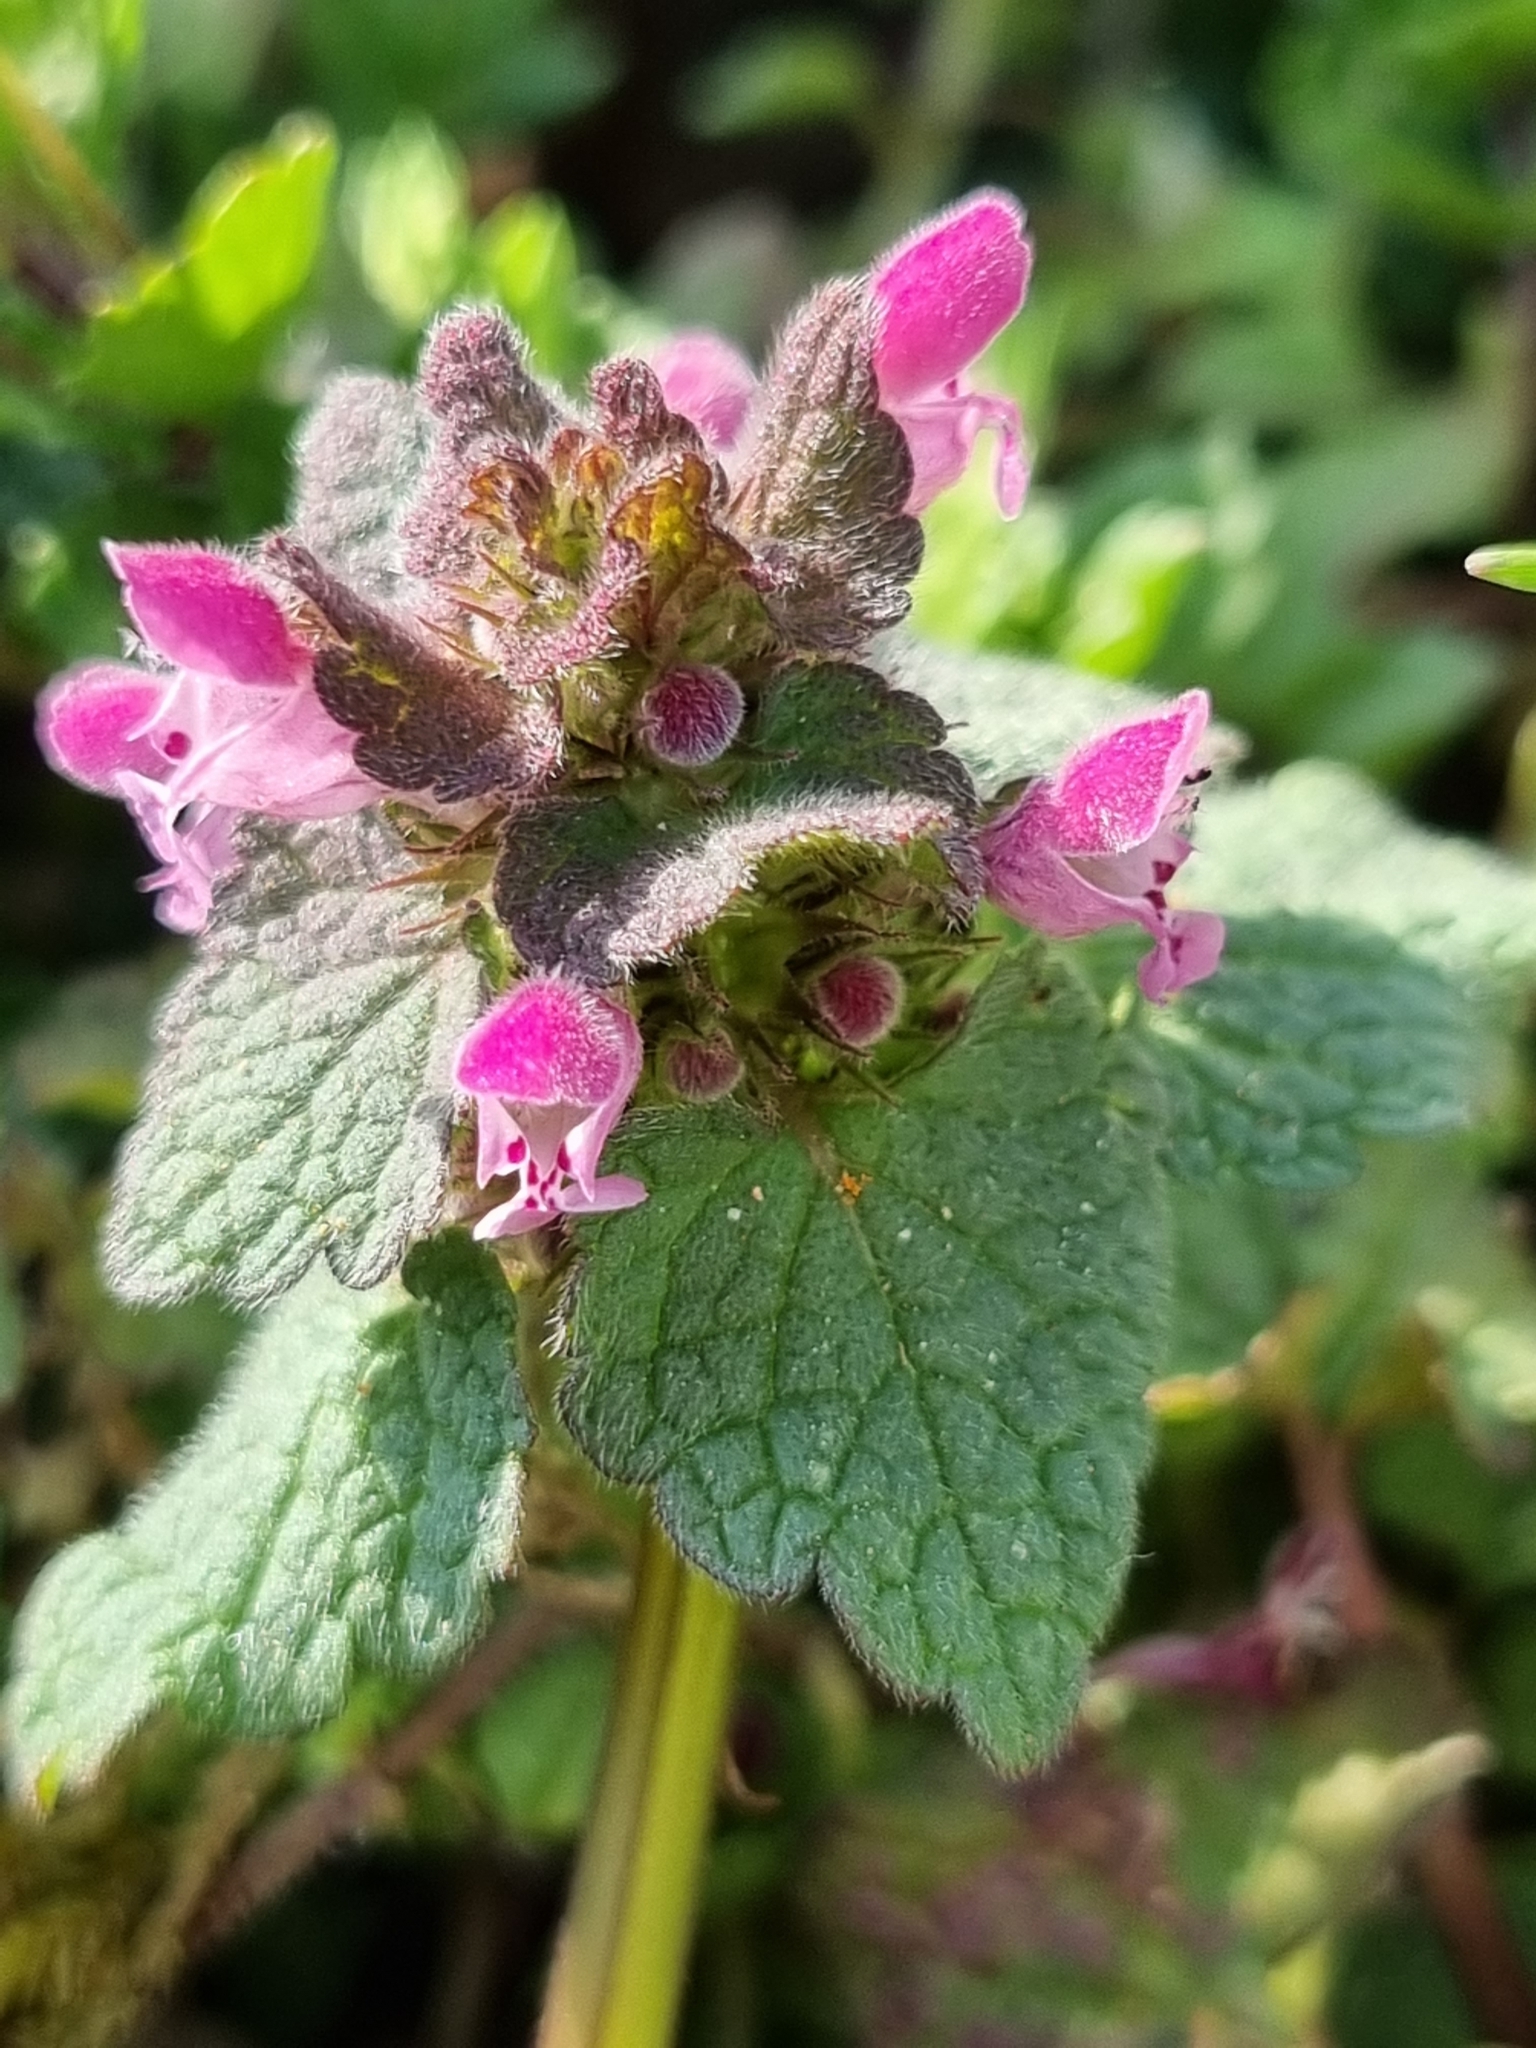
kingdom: Plantae
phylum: Tracheophyta
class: Magnoliopsida
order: Lamiales
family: Lamiaceae
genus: Lamium
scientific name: Lamium purpureum
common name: Red dead-nettle
